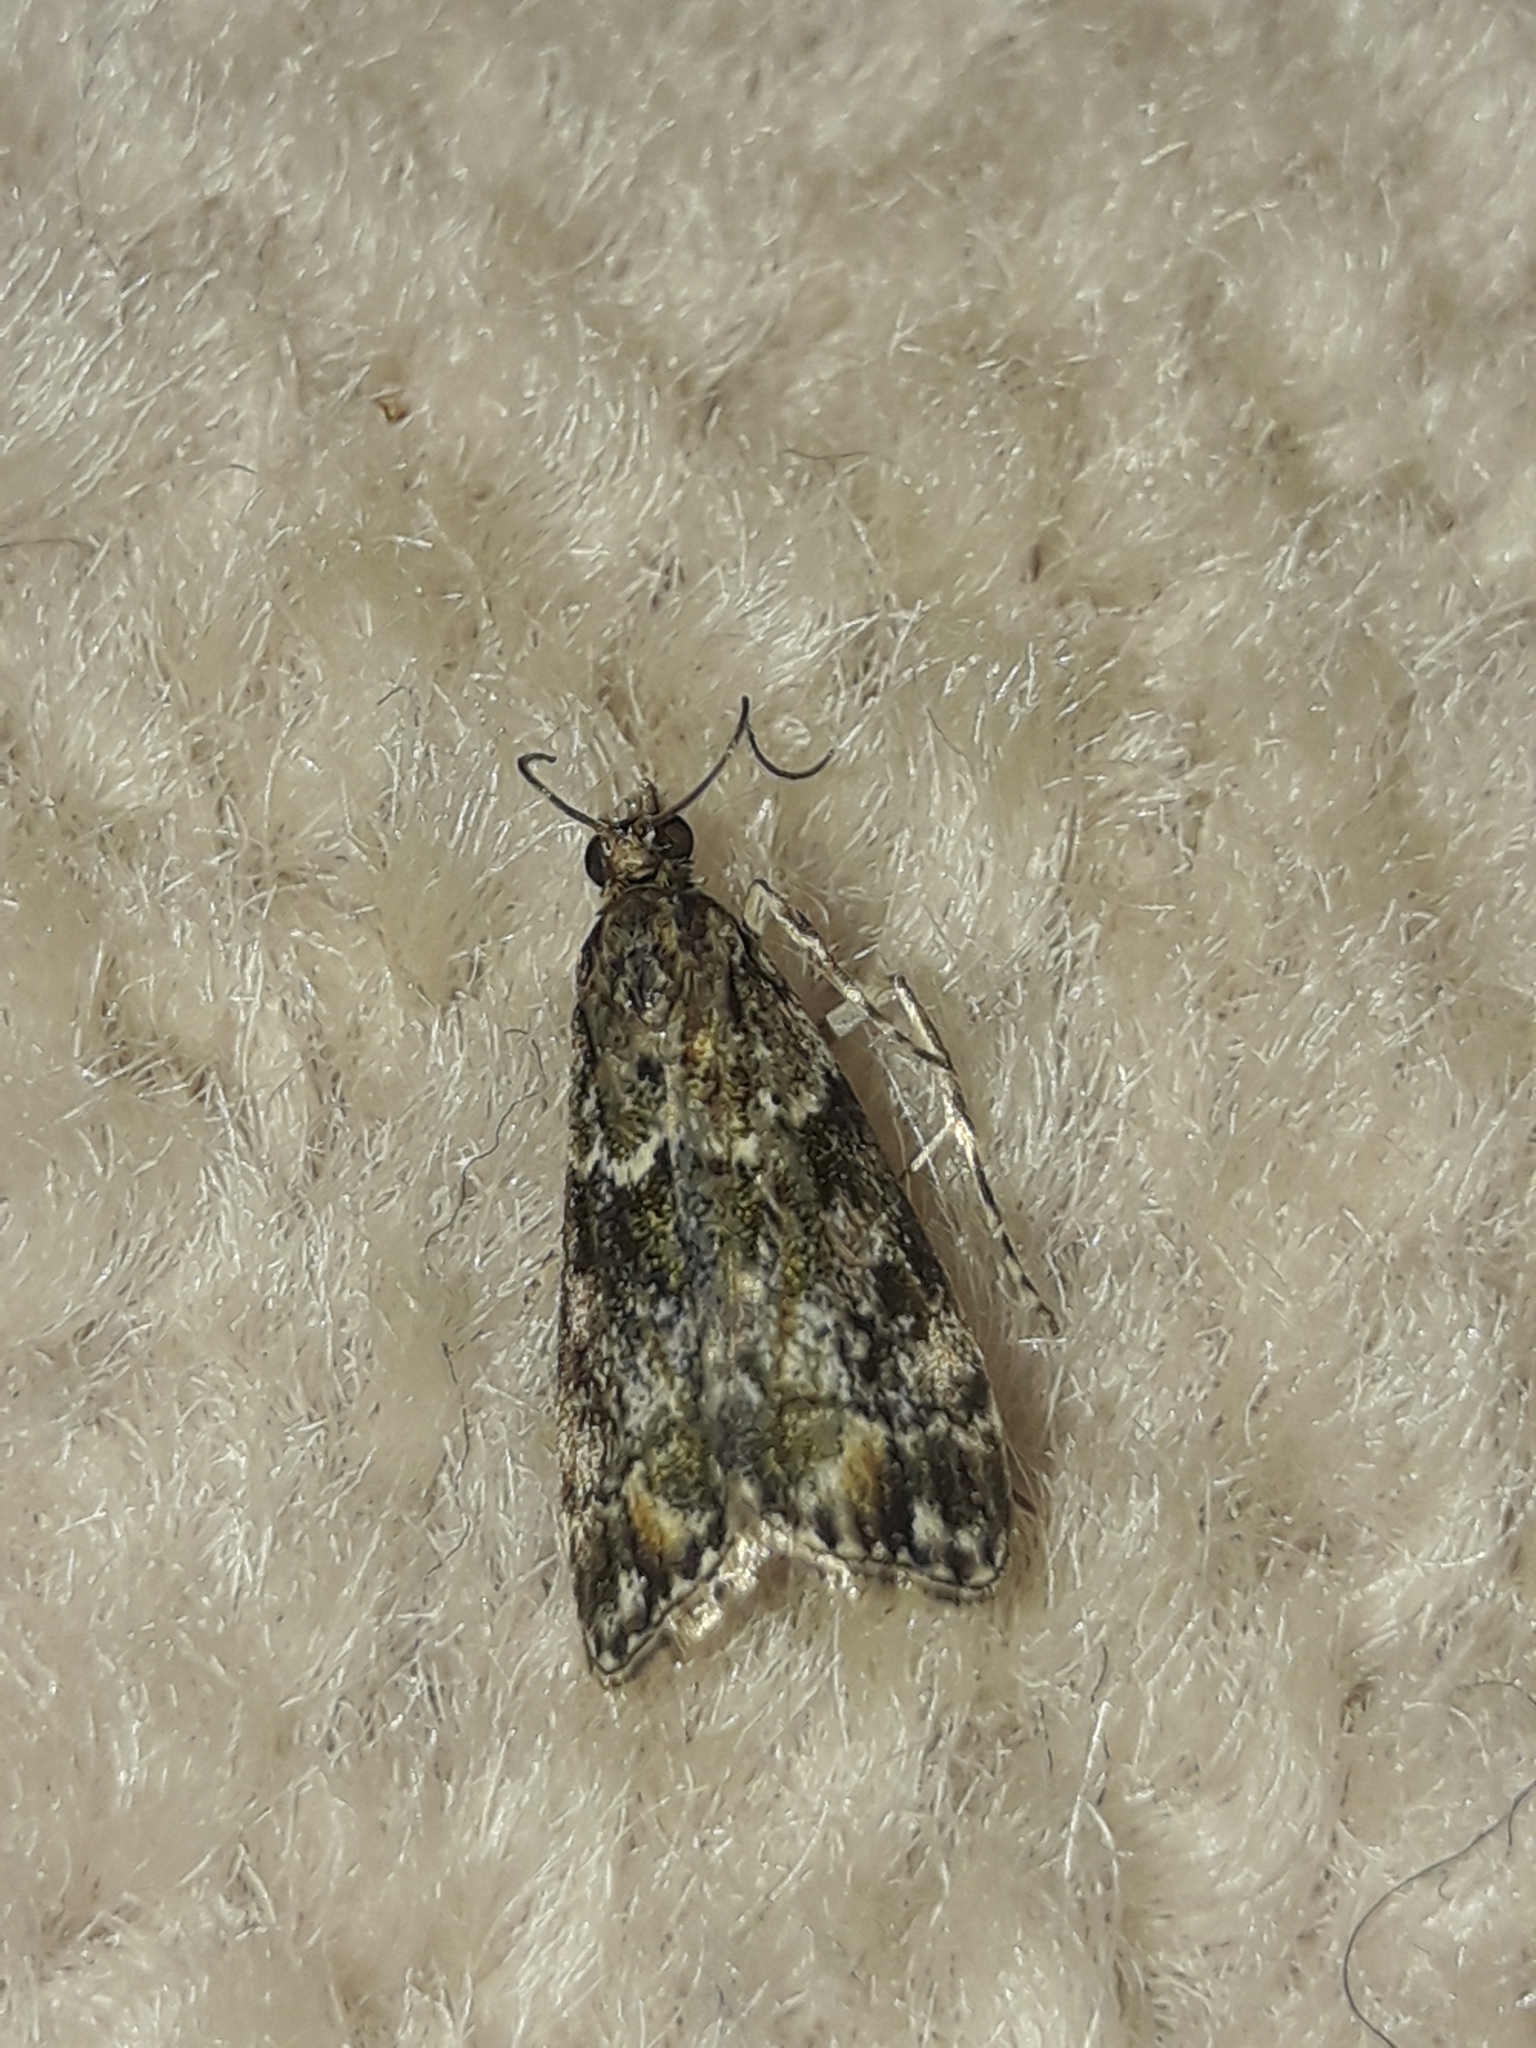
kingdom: Animalia
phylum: Arthropoda
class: Insecta
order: Lepidoptera
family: Crambidae
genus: Eudonia
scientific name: Eudonia minualis
